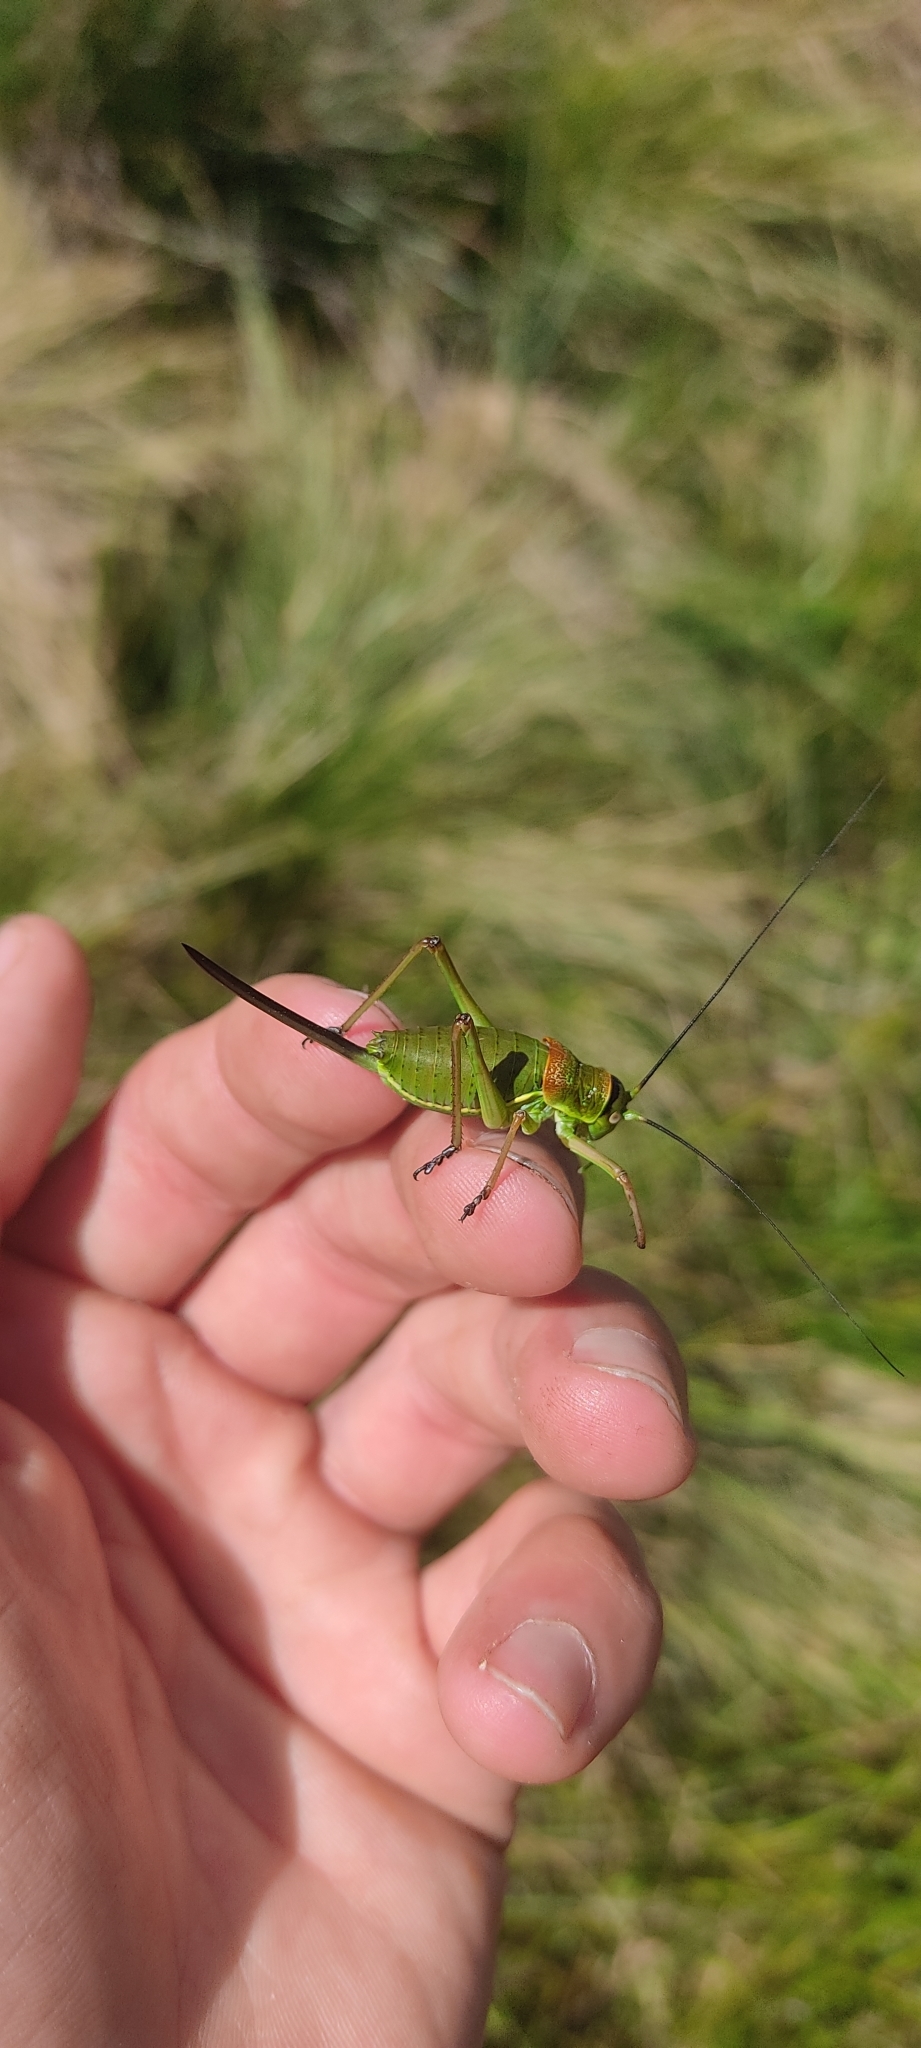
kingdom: Animalia
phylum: Arthropoda
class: Insecta
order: Orthoptera
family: Tettigoniidae
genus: Ephippiger
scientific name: Ephippiger diurnus
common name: Western saddle bush-cricket
